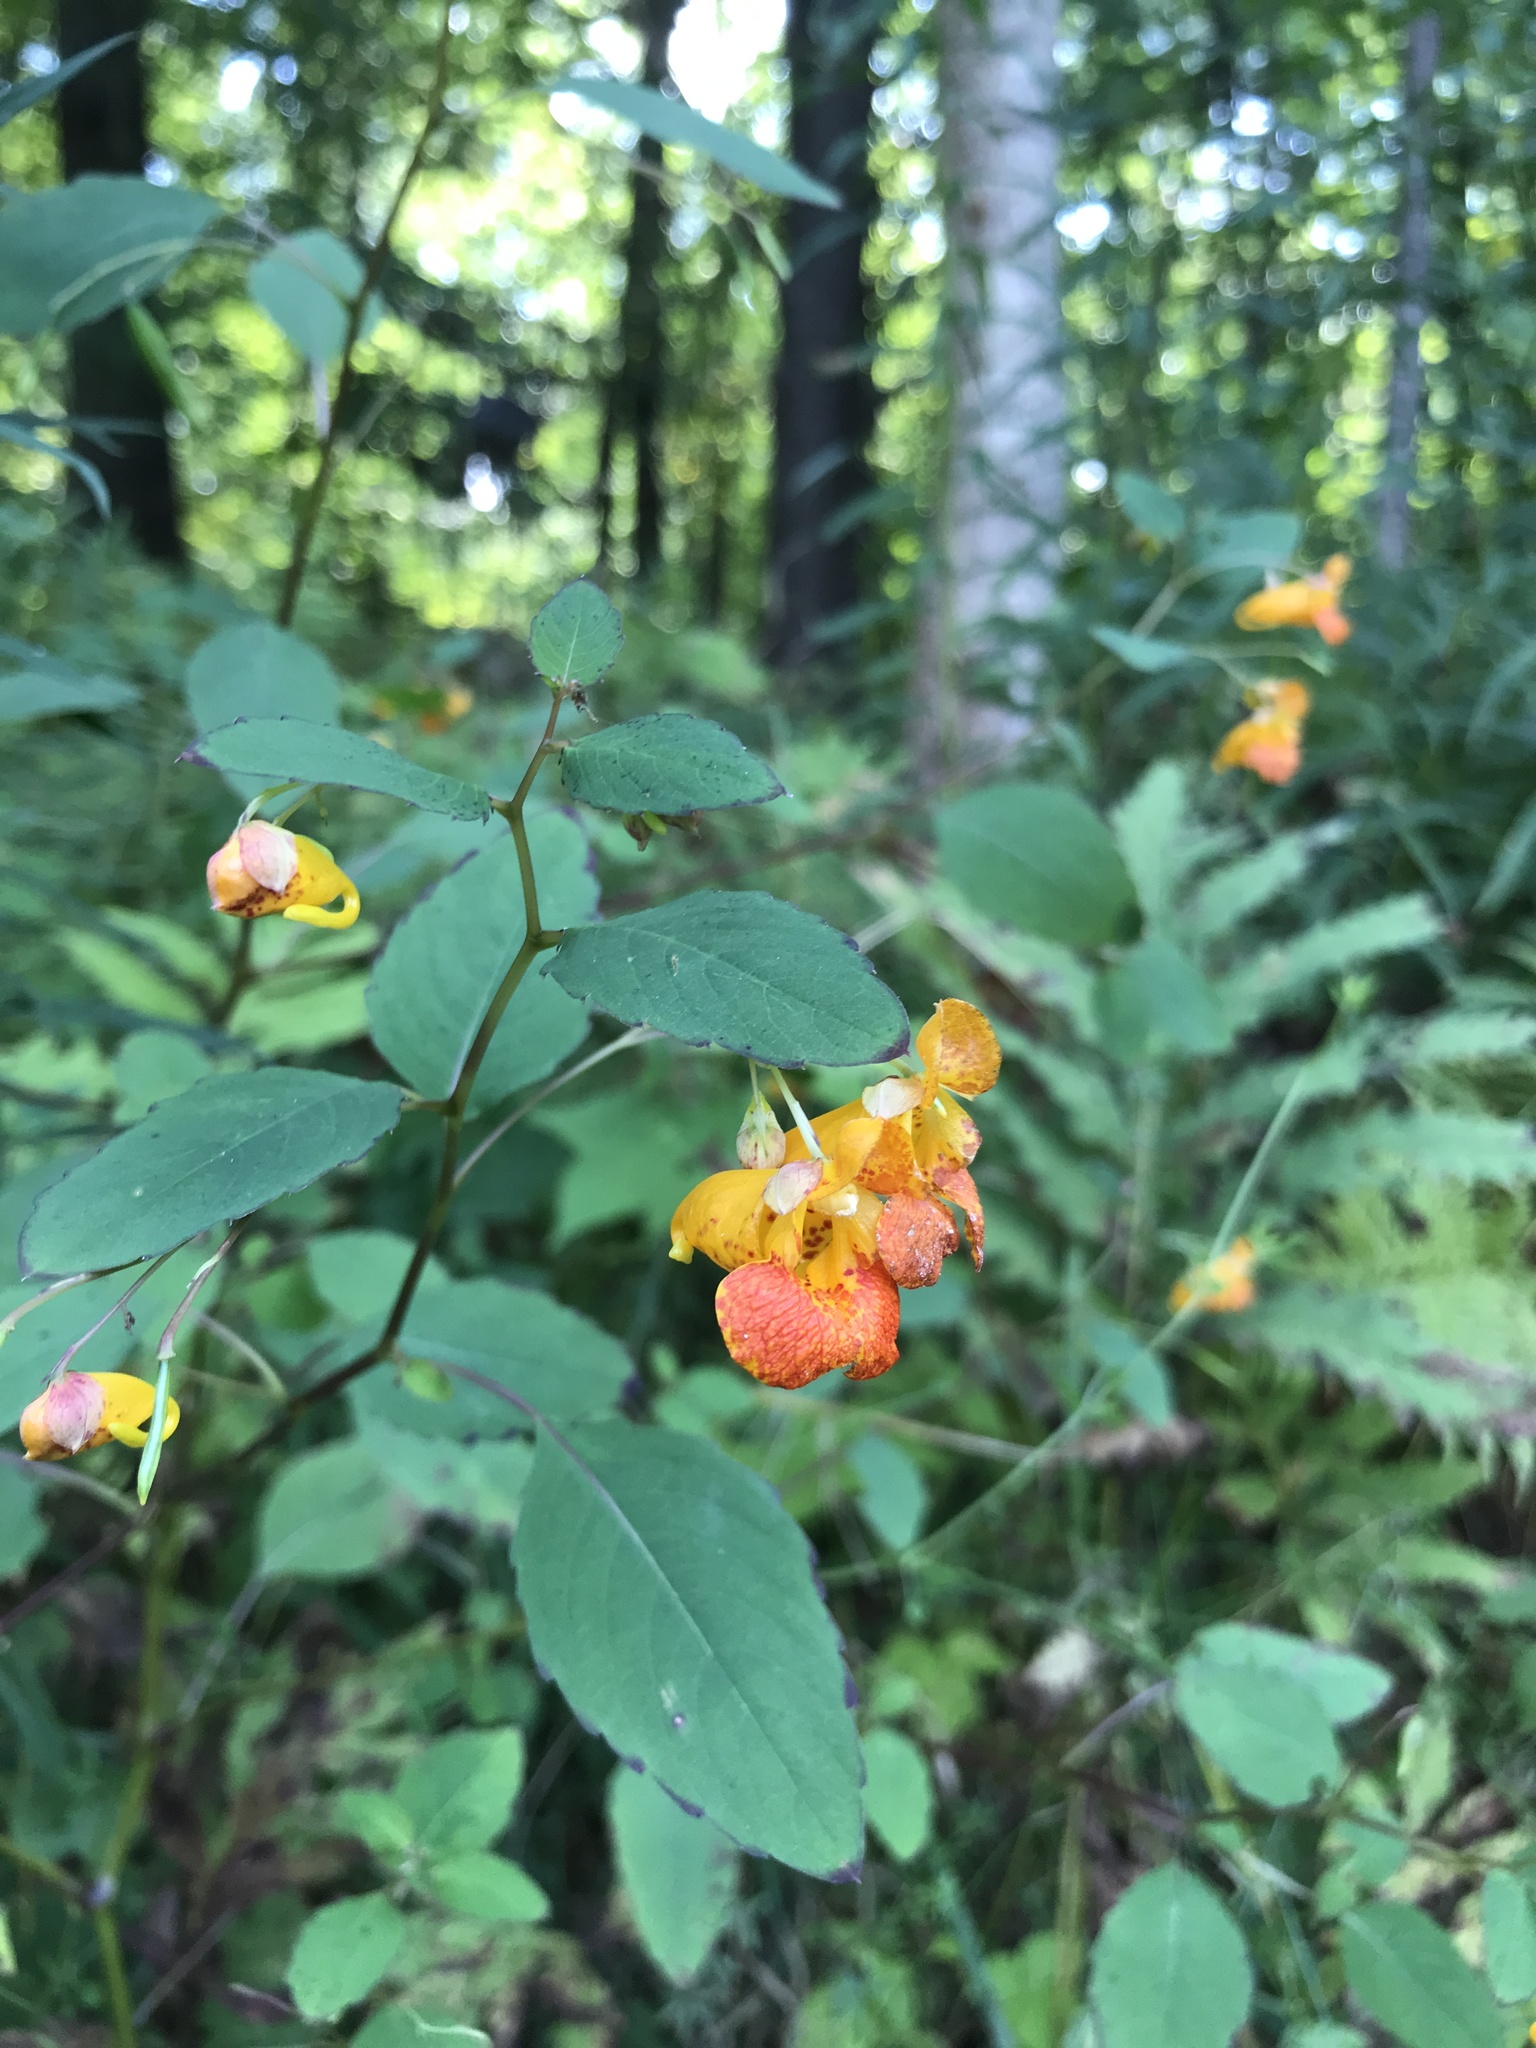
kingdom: Plantae
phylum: Tracheophyta
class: Magnoliopsida
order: Ericales
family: Balsaminaceae
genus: Impatiens
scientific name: Impatiens capensis
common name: Orange balsam
